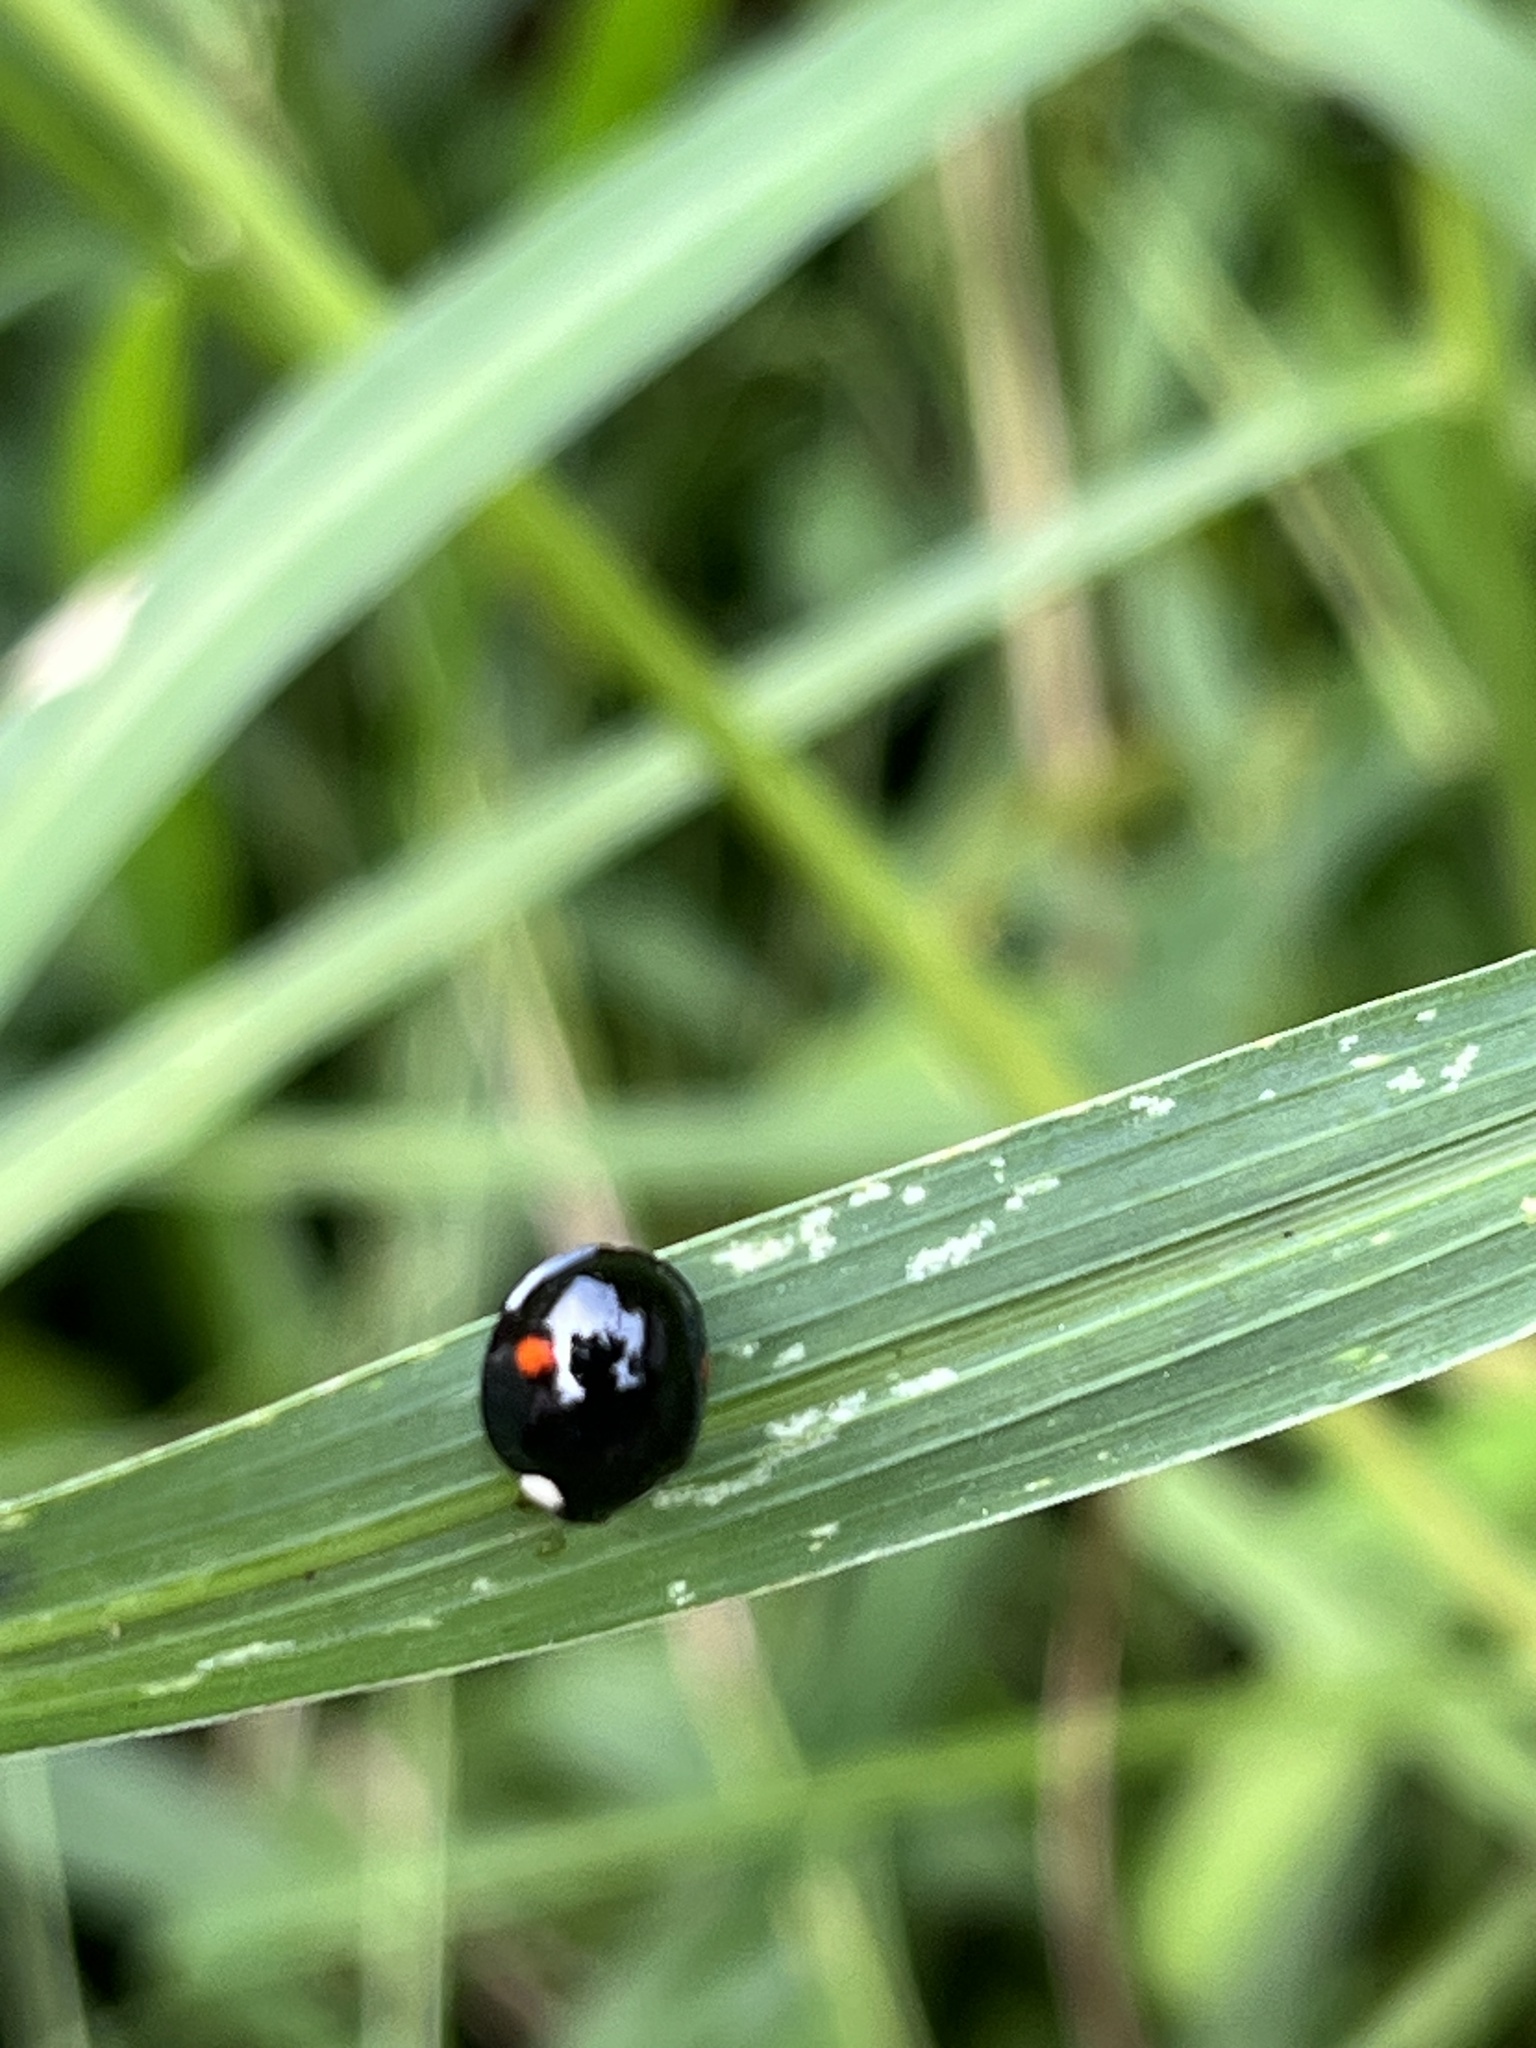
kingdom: Animalia
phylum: Arthropoda
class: Insecta
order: Coleoptera
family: Coccinellidae
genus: Coelophora
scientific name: Coelophora saucia
